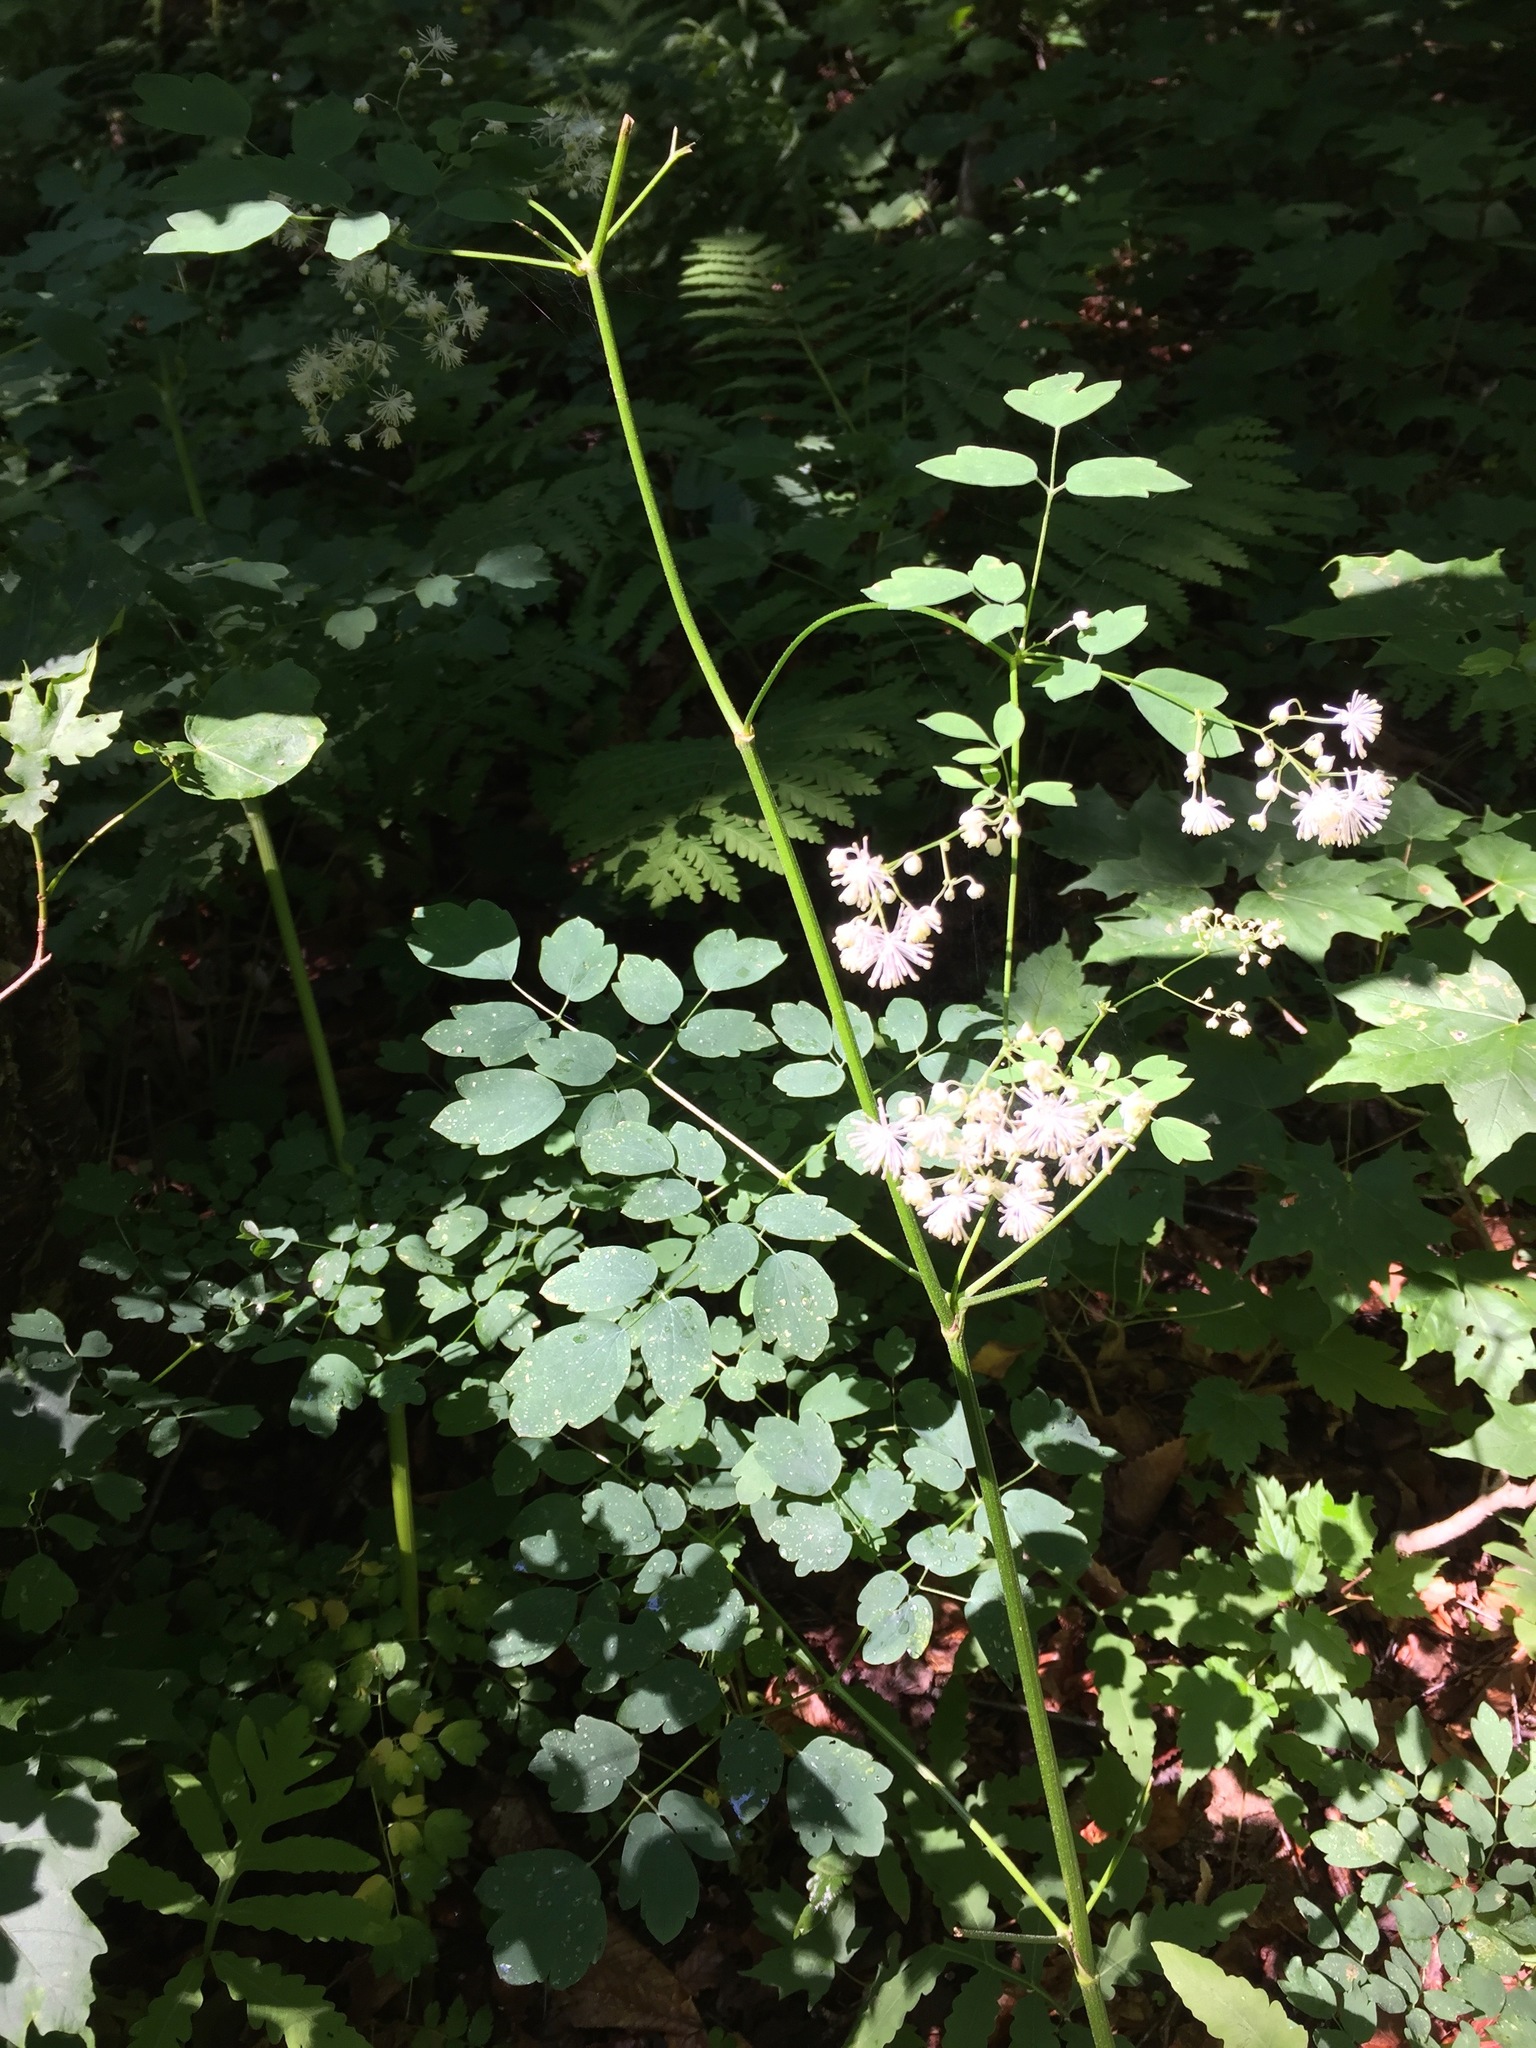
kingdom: Plantae
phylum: Tracheophyta
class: Magnoliopsida
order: Ranunculales
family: Ranunculaceae
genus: Thalictrum
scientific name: Thalictrum pubescens
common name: King-of-the-meadow
